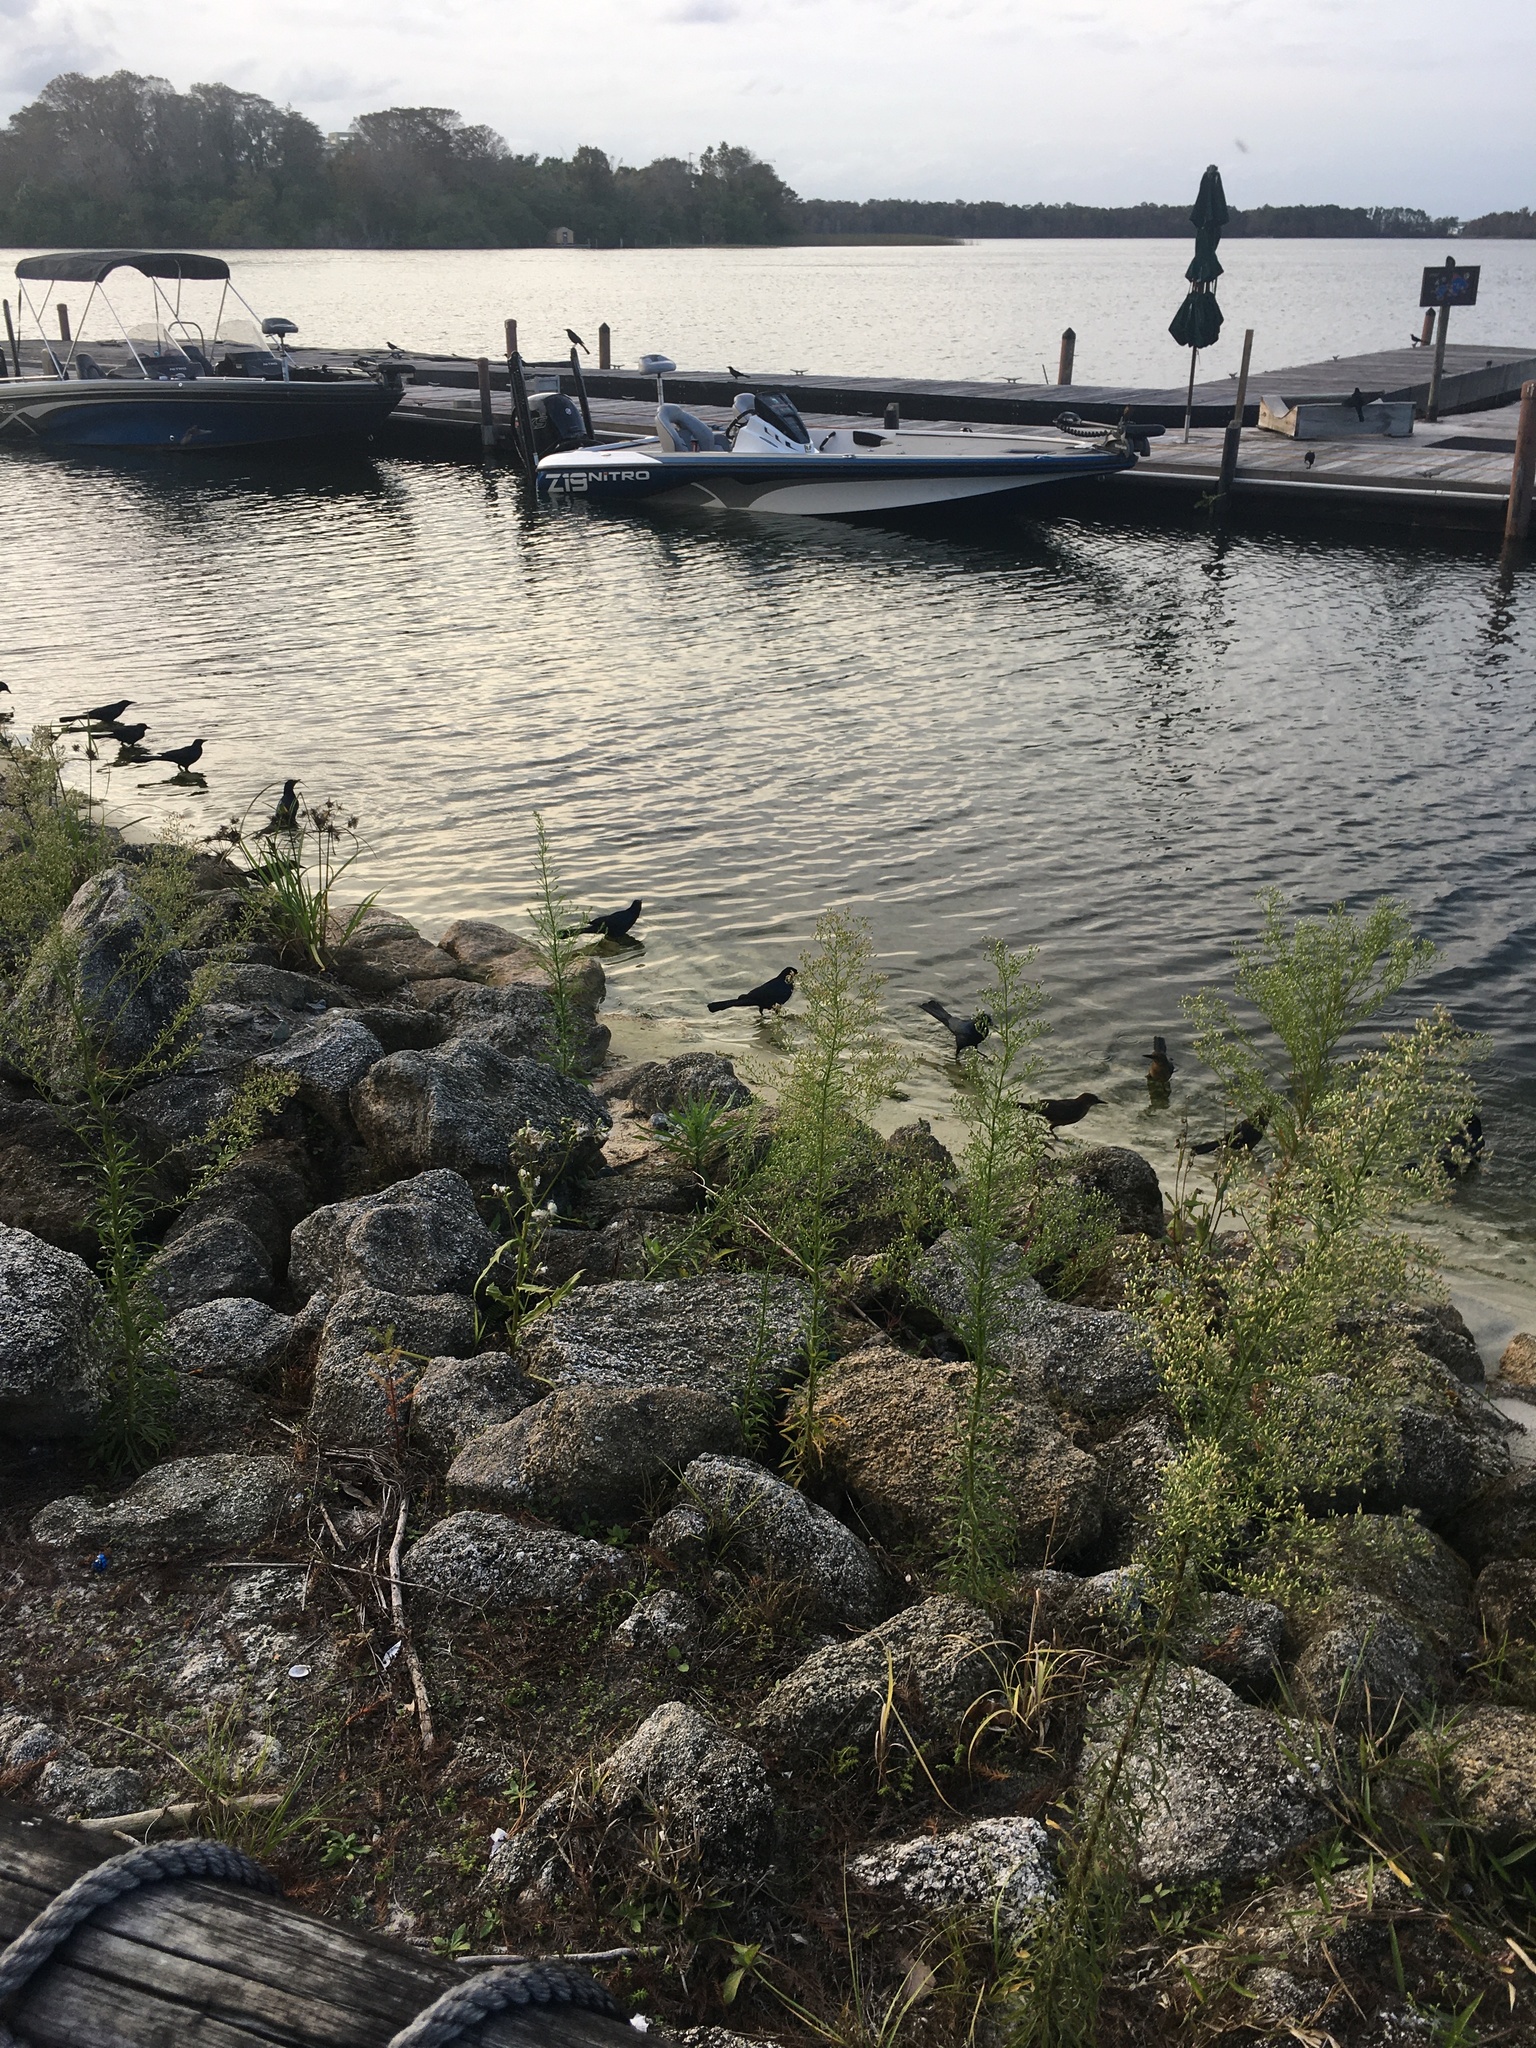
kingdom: Animalia
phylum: Chordata
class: Aves
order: Passeriformes
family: Icteridae
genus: Quiscalus
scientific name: Quiscalus major
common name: Boat-tailed grackle
